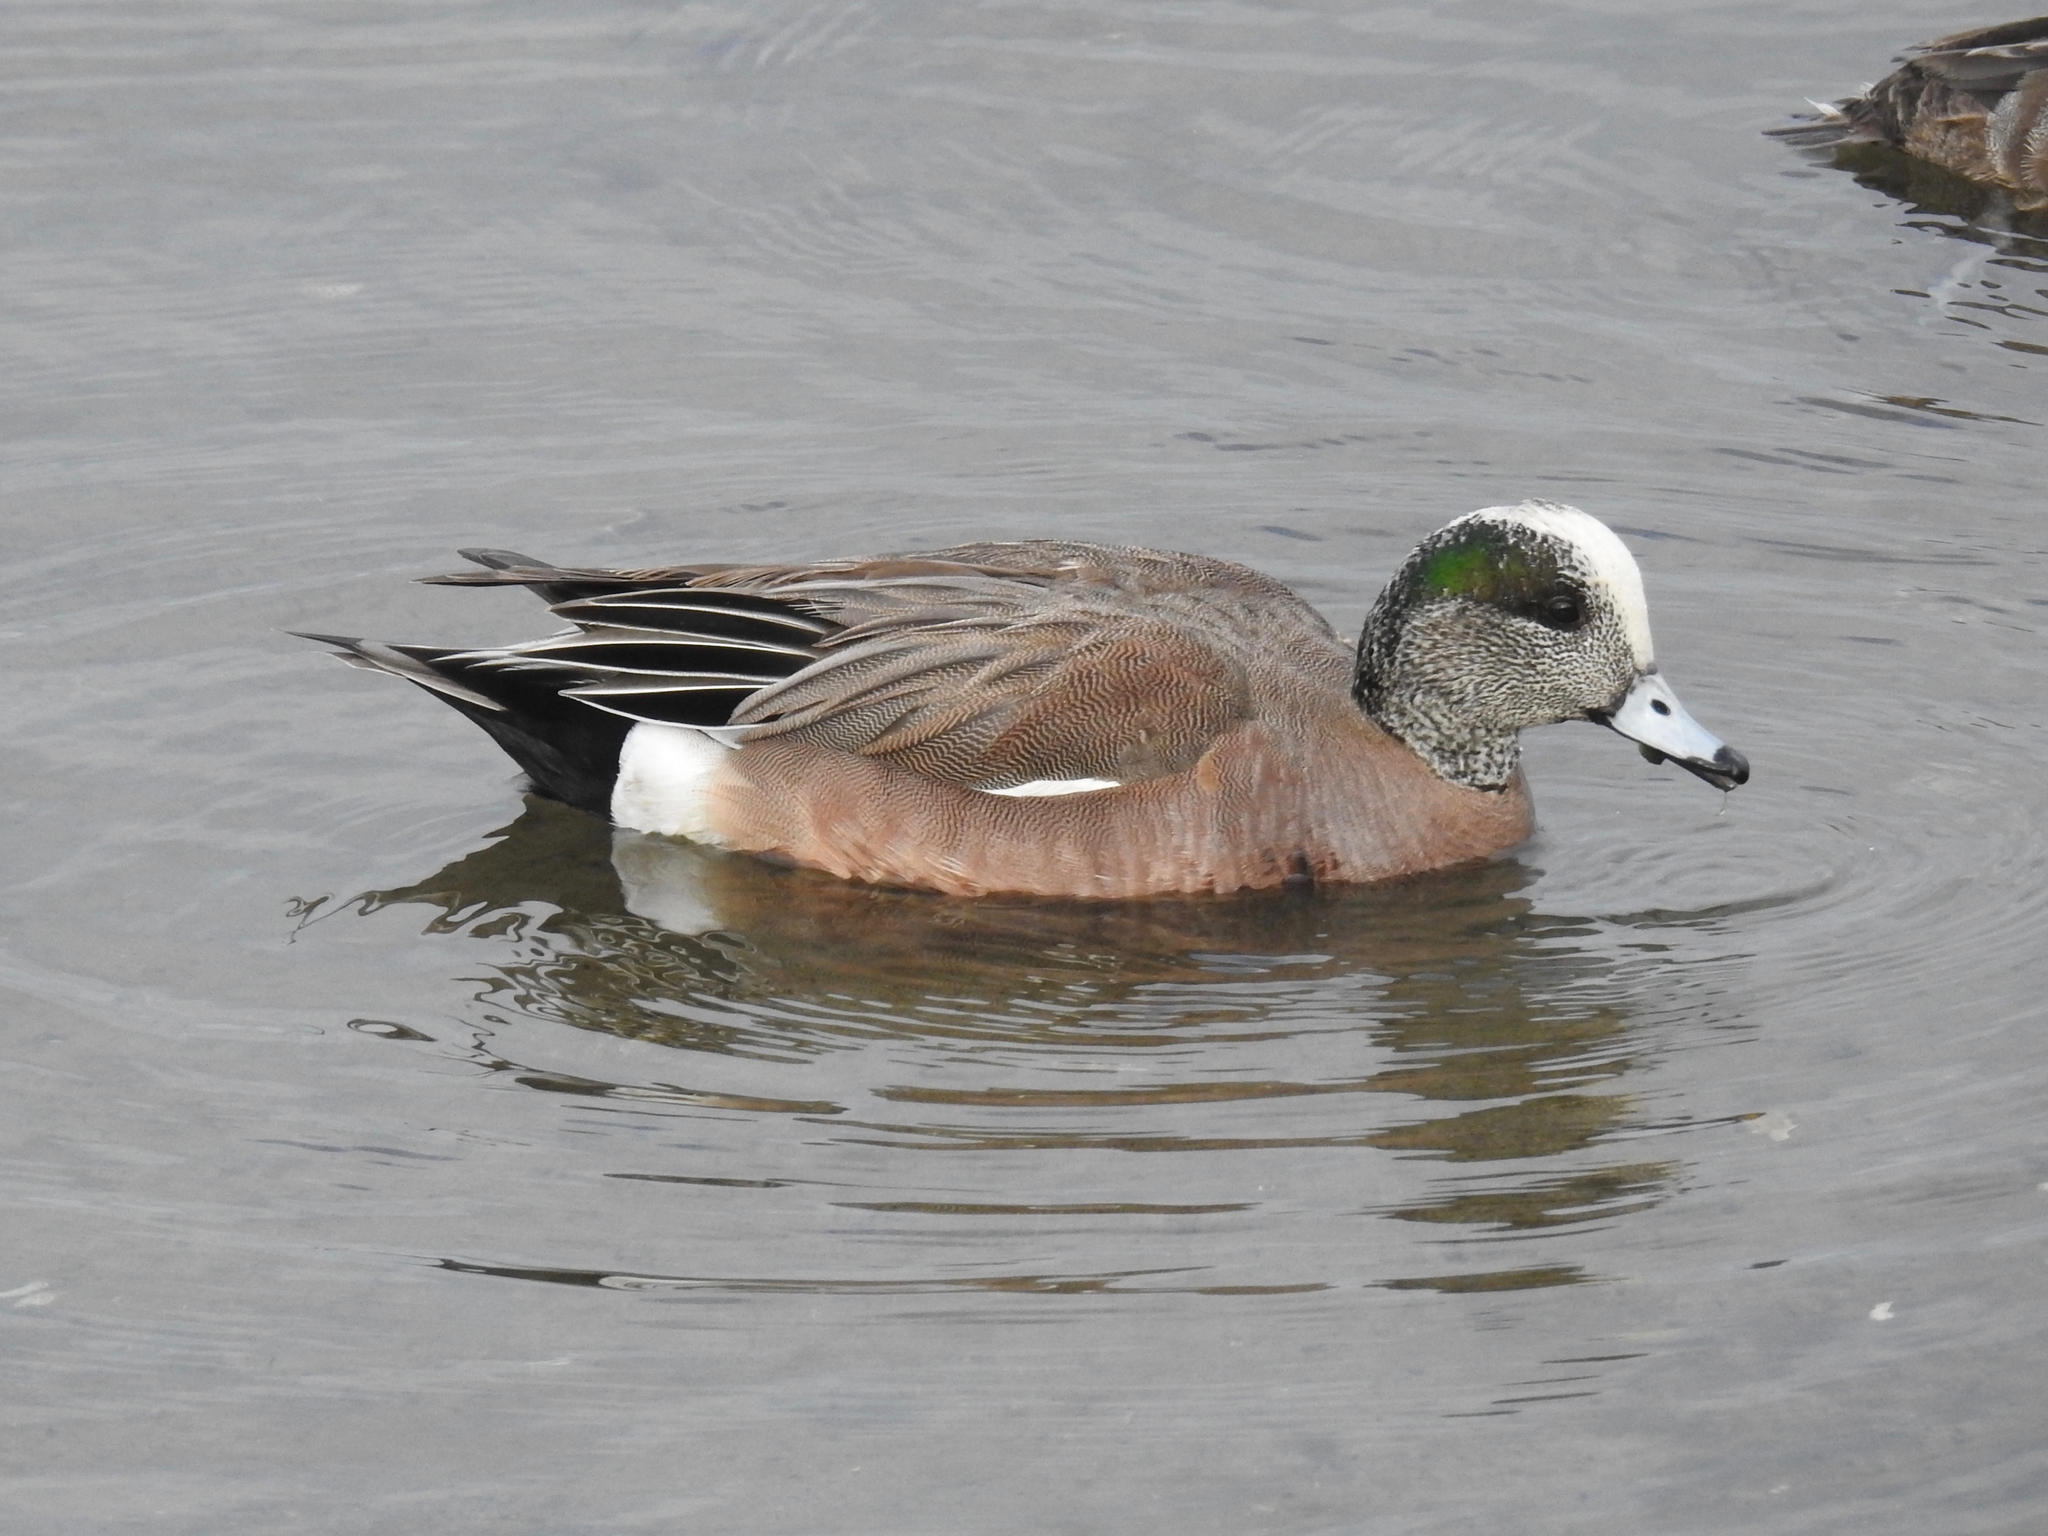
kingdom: Animalia
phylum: Chordata
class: Aves
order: Anseriformes
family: Anatidae
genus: Mareca
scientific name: Mareca americana
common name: American wigeon
